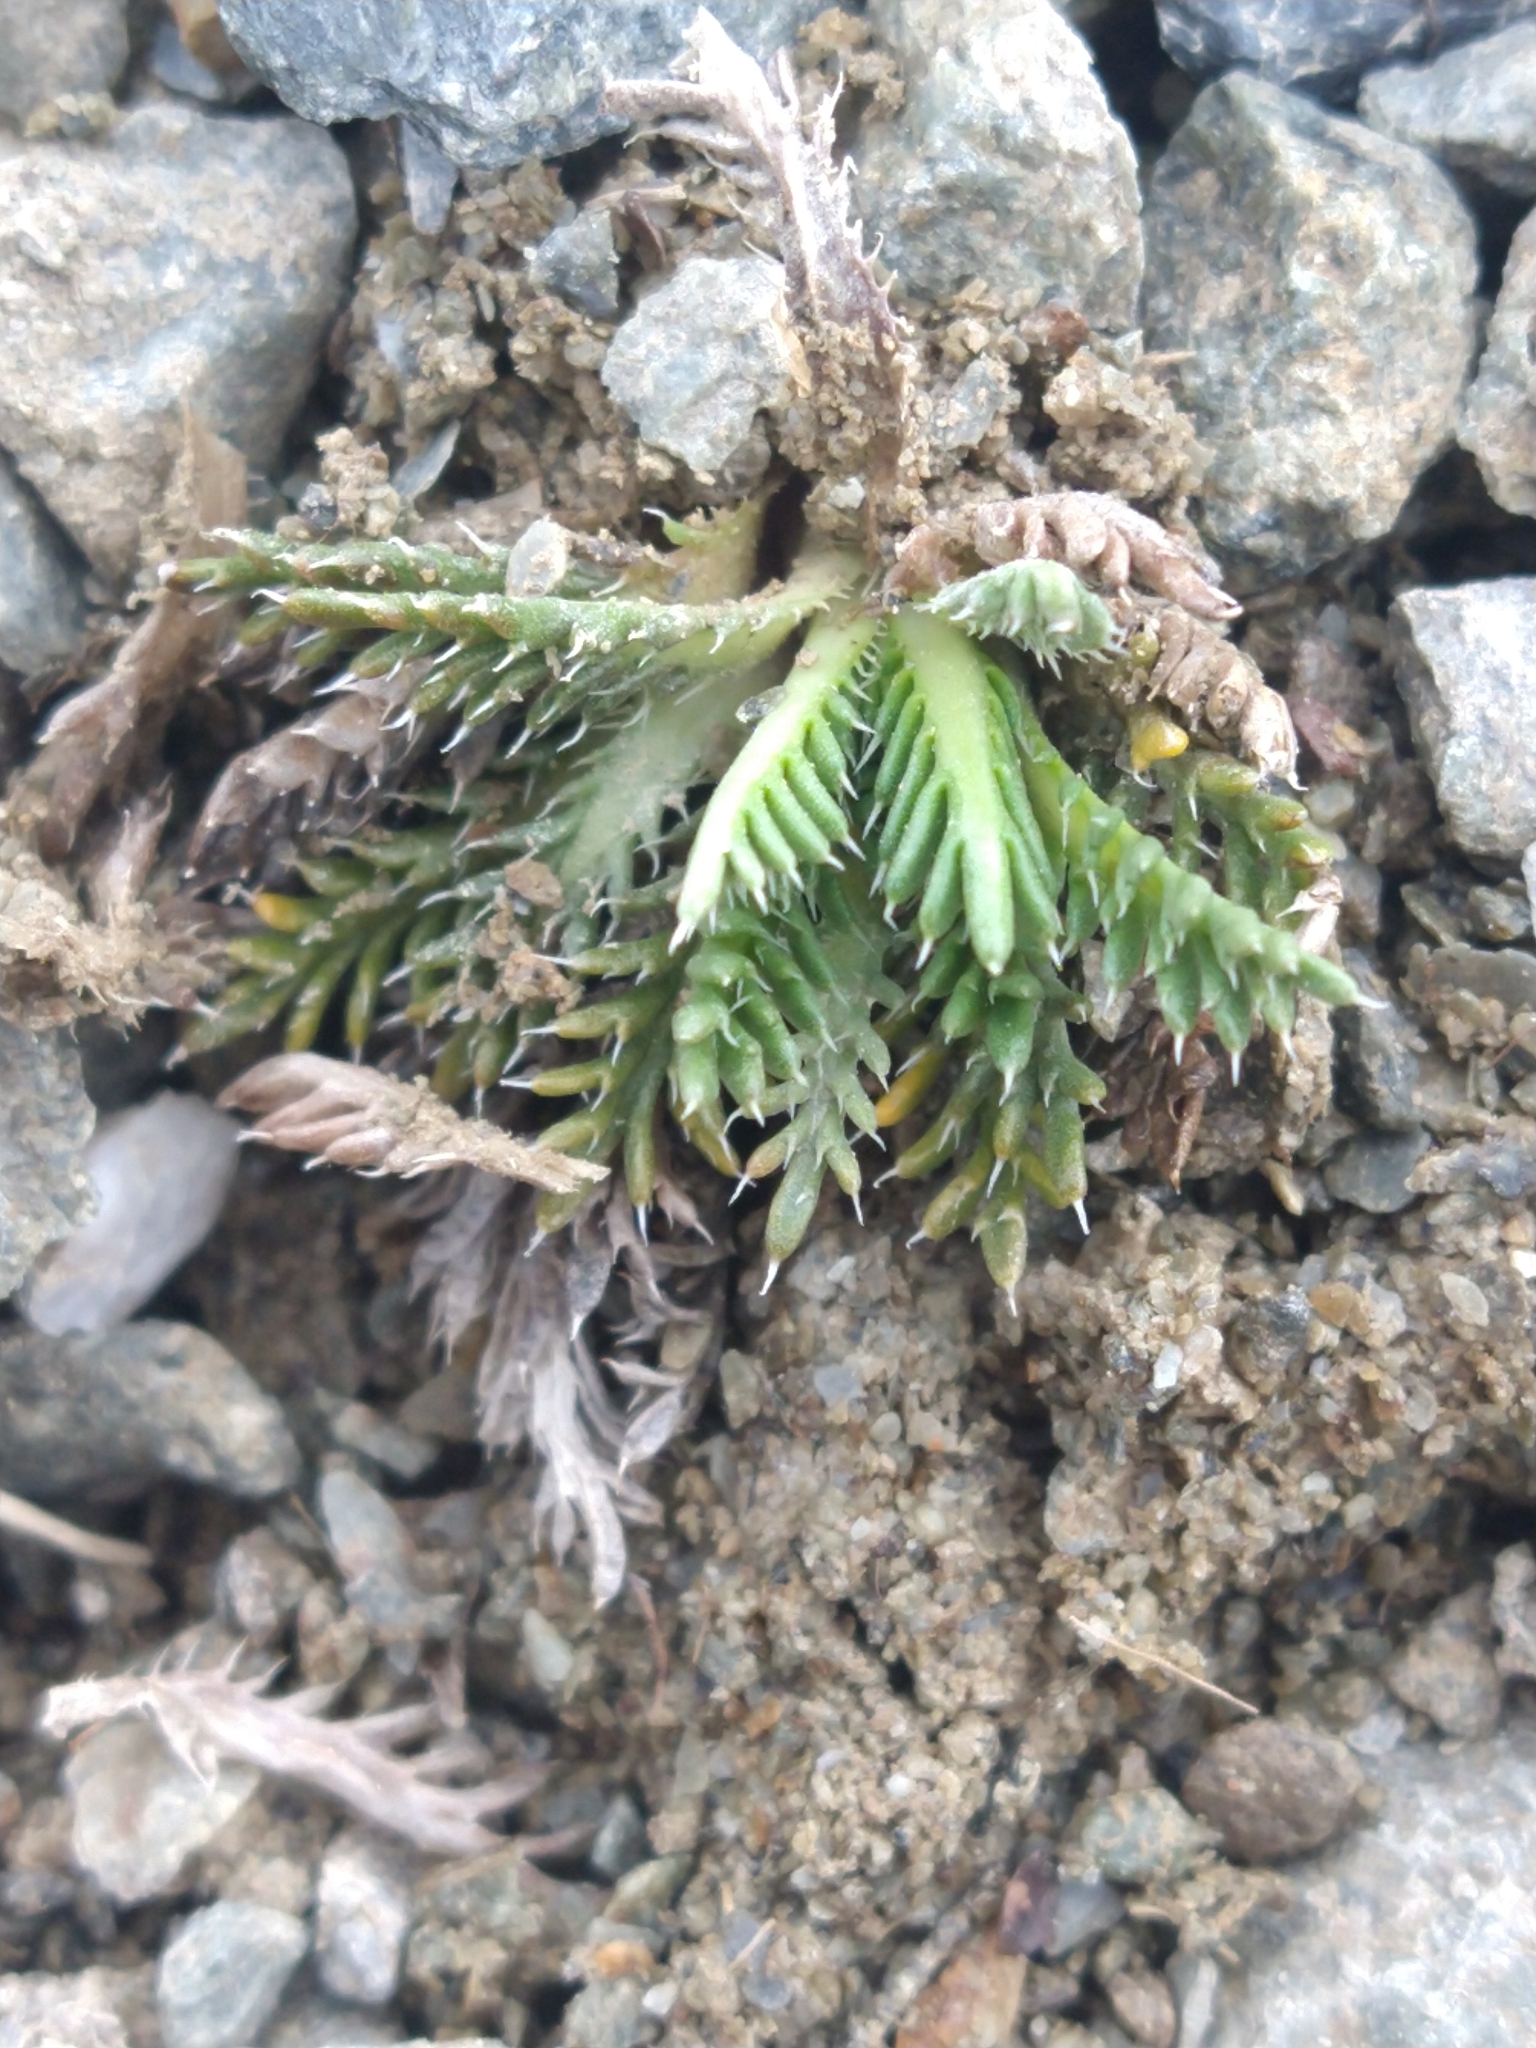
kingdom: Plantae
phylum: Tracheophyta
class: Magnoliopsida
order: Asterales
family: Asteraceae
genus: Perezia
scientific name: Perezia pilifera
